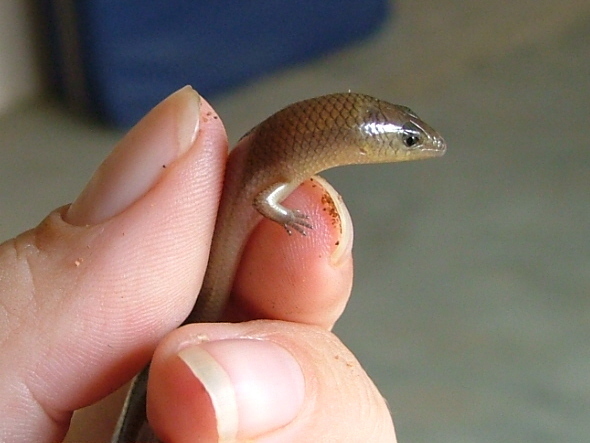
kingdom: Animalia
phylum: Chordata
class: Squamata
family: Scincidae
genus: Mochlus
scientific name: Mochlus sundevallii
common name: Peters' eyelid skink
